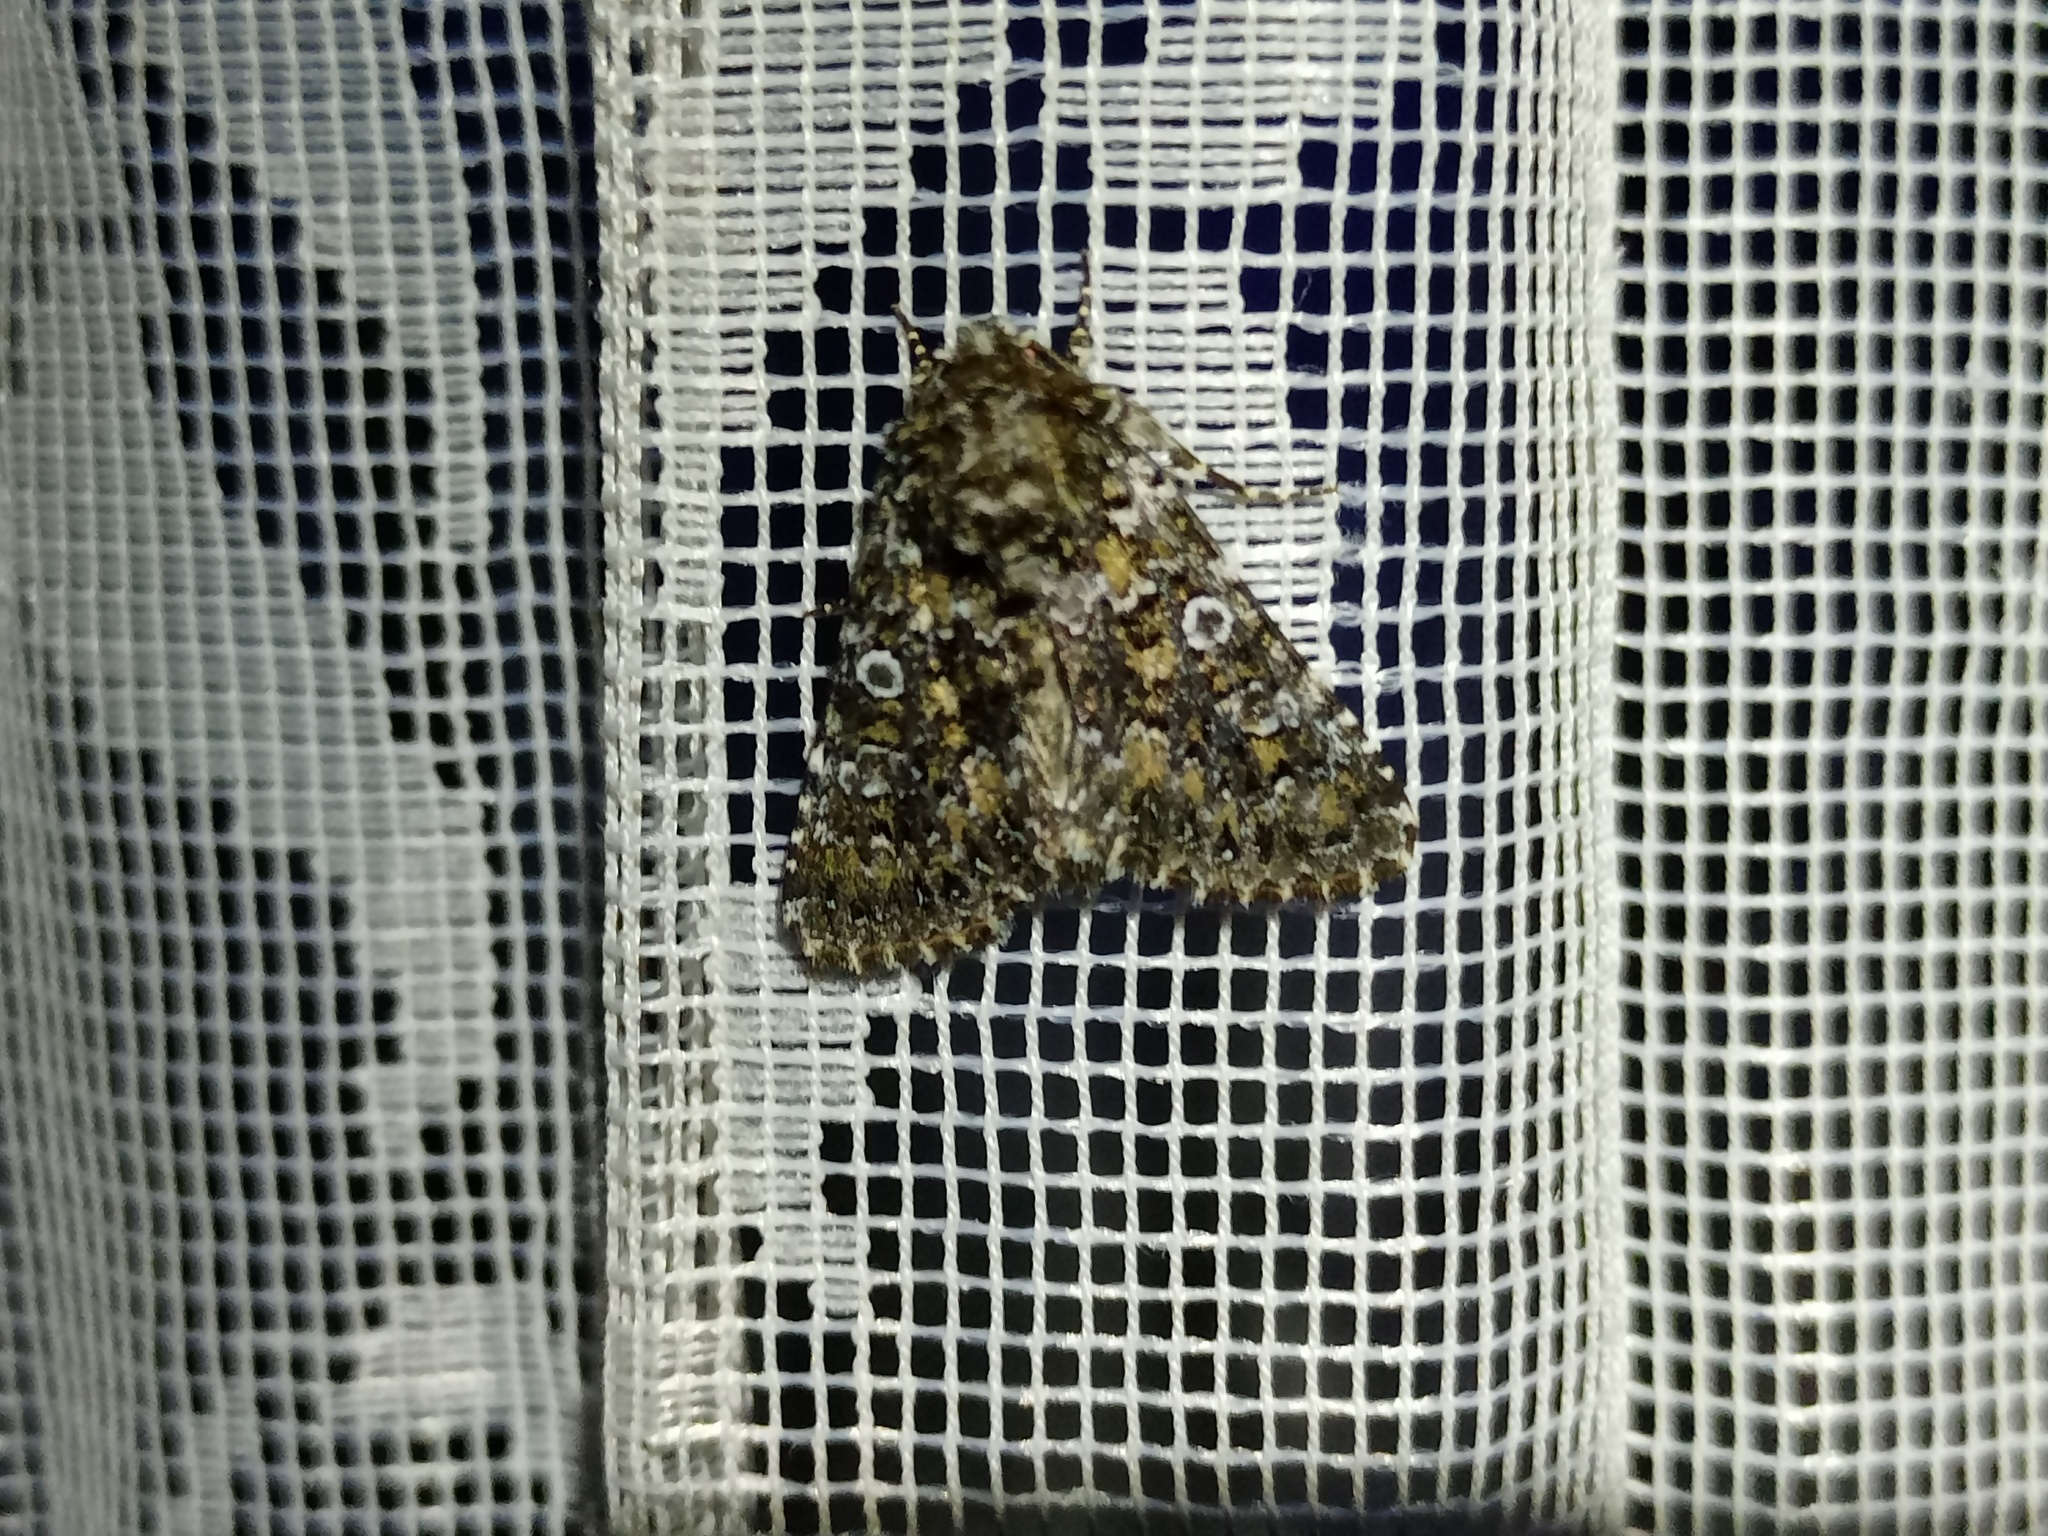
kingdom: Animalia
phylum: Arthropoda
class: Insecta
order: Lepidoptera
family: Noctuidae
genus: Hadena
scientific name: Hadena magnolii
